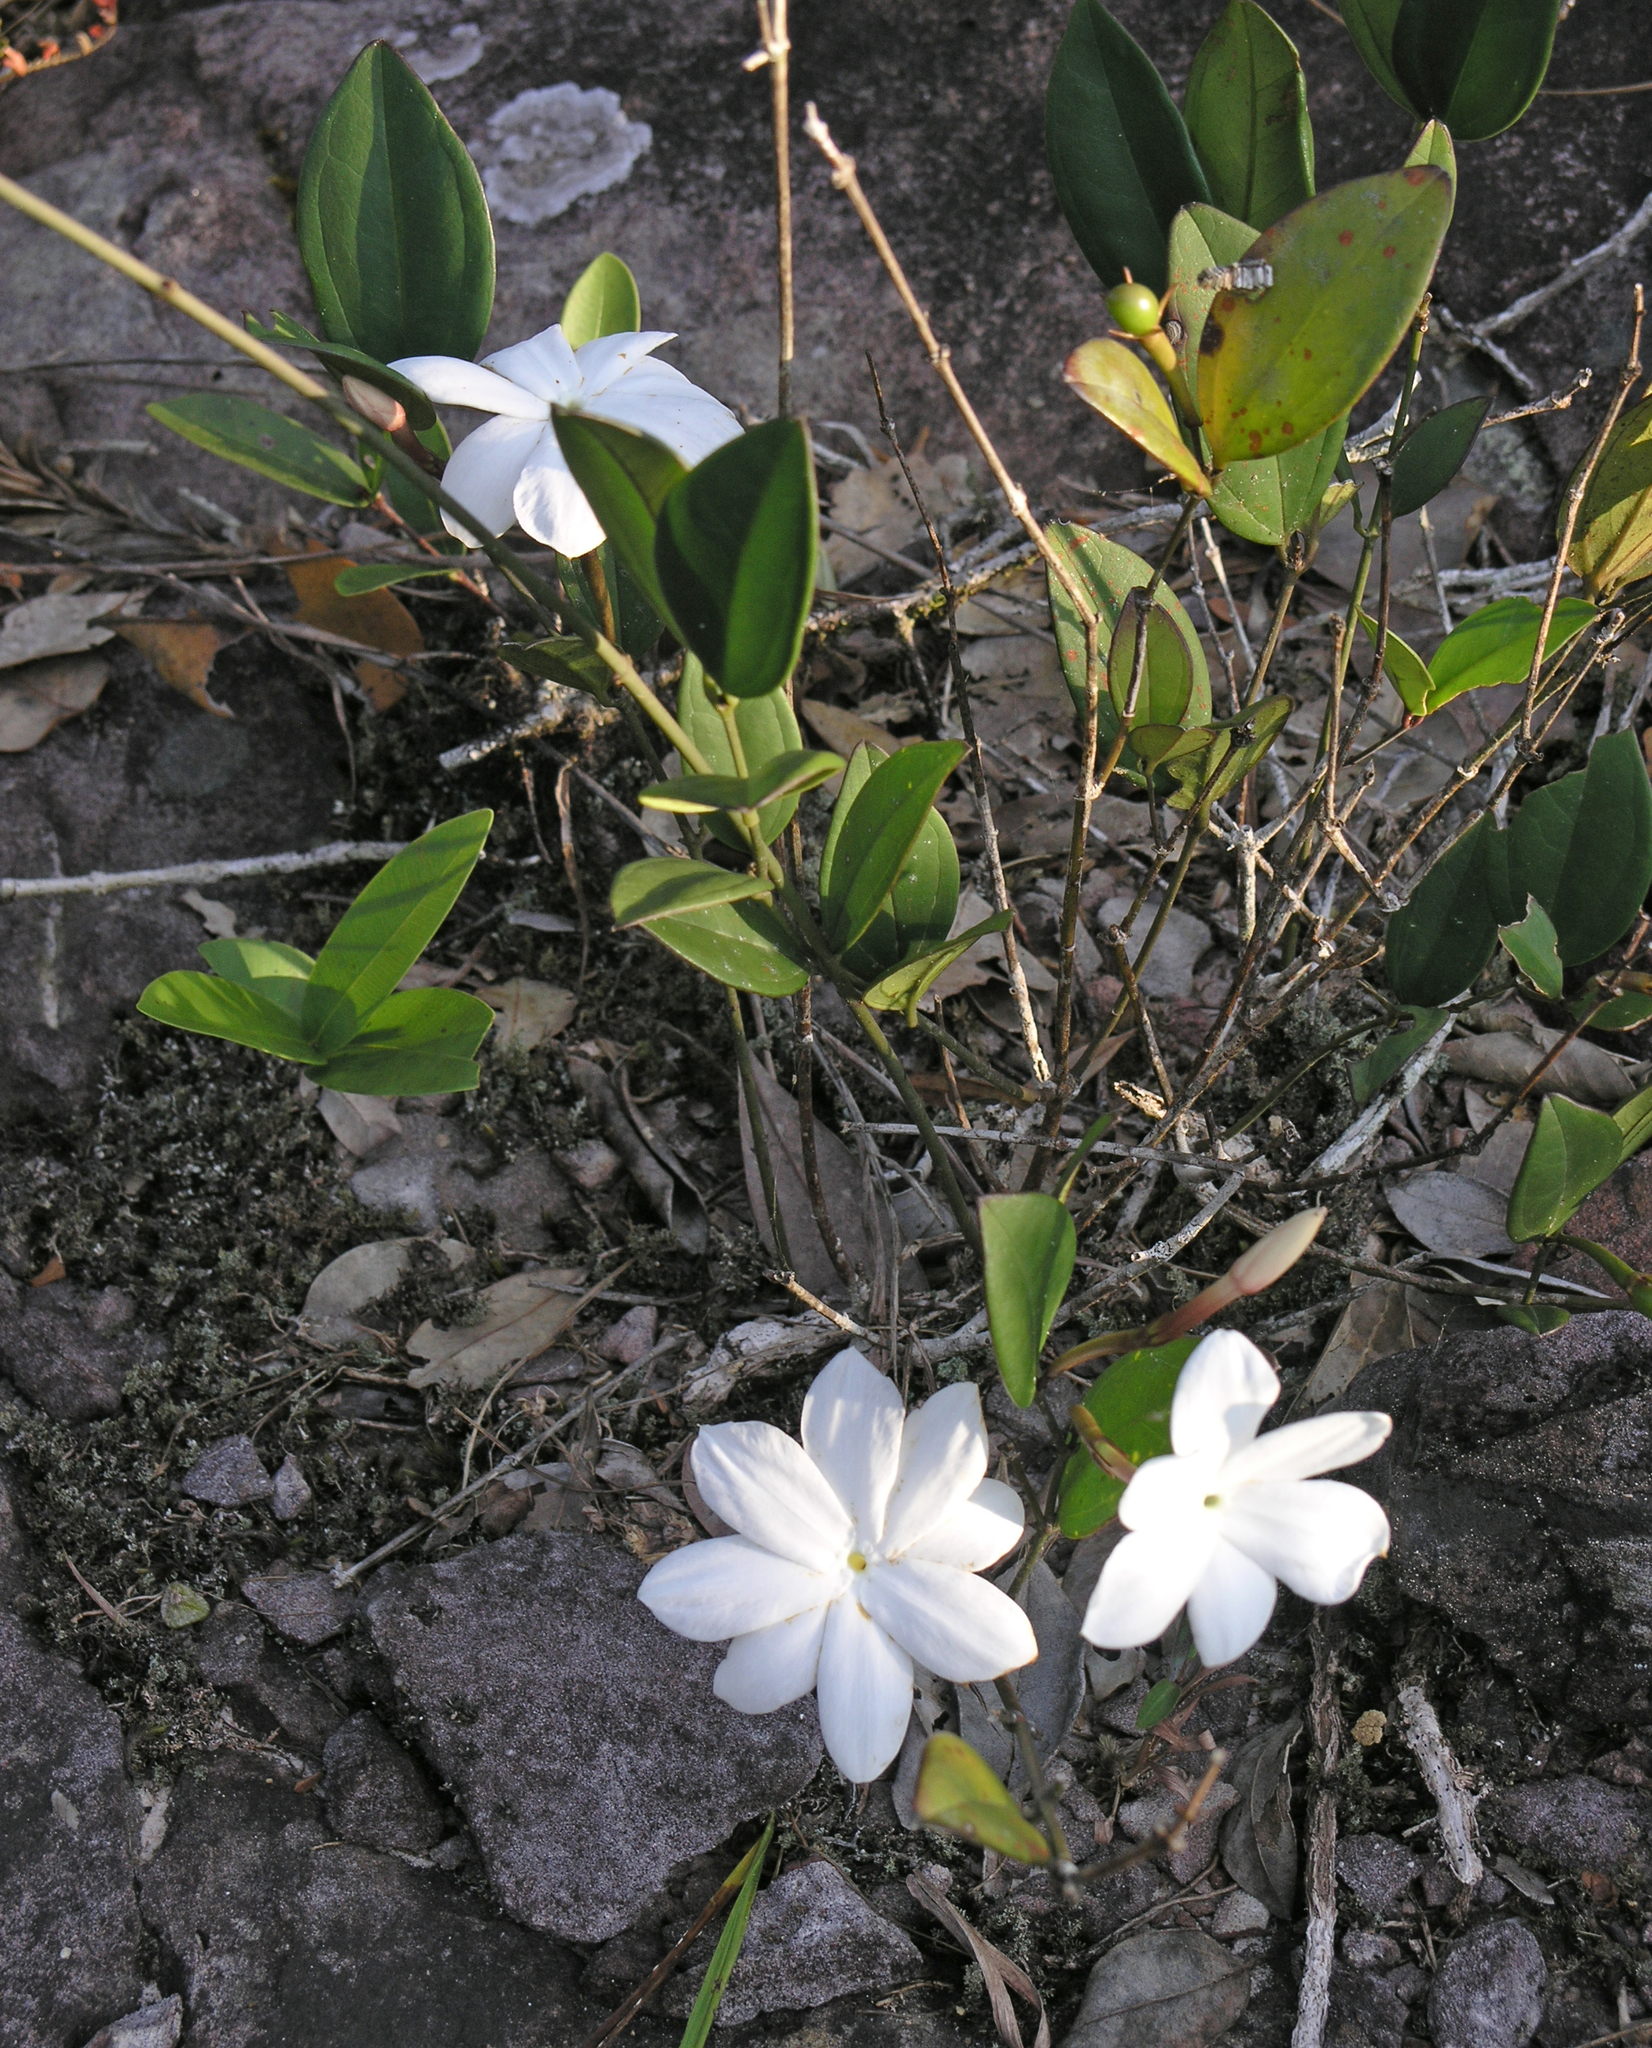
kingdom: Plantae
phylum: Tracheophyta
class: Magnoliopsida
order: Lamiales
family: Oleaceae
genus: Jasminum
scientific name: Jasminum nobile
